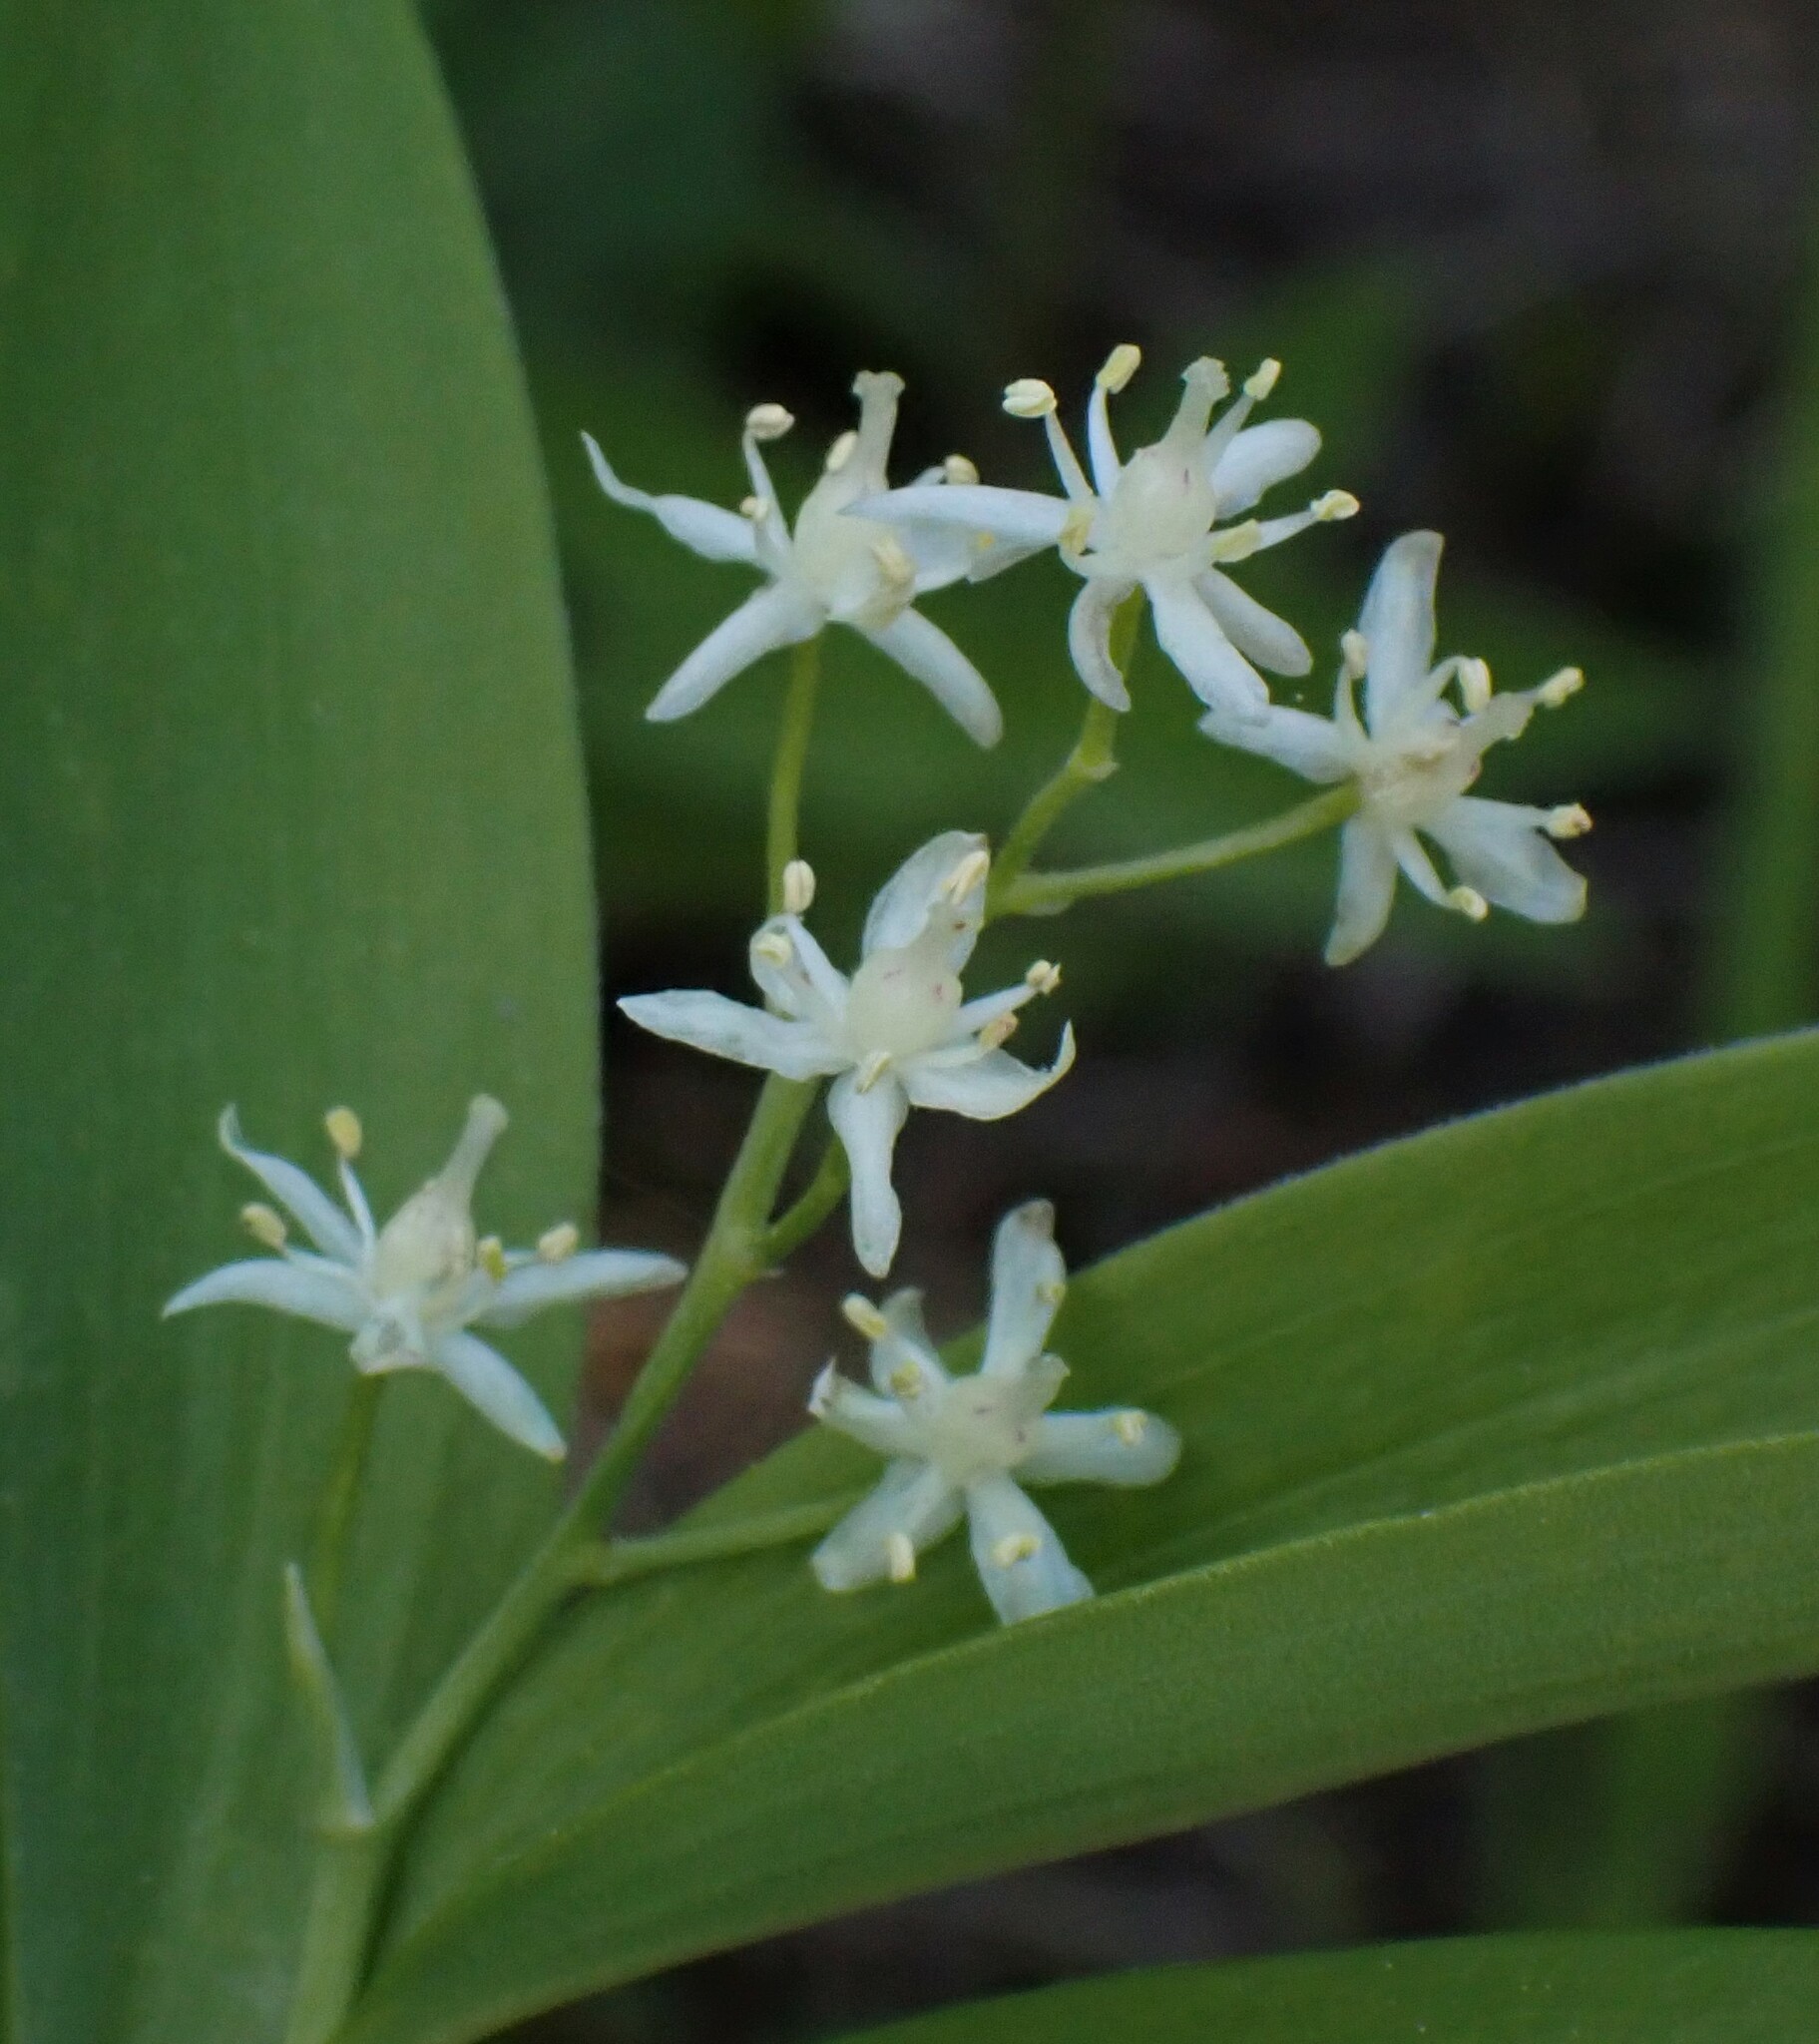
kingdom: Plantae
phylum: Tracheophyta
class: Liliopsida
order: Asparagales
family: Asparagaceae
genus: Maianthemum
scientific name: Maianthemum stellatum
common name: Little false solomon's seal
